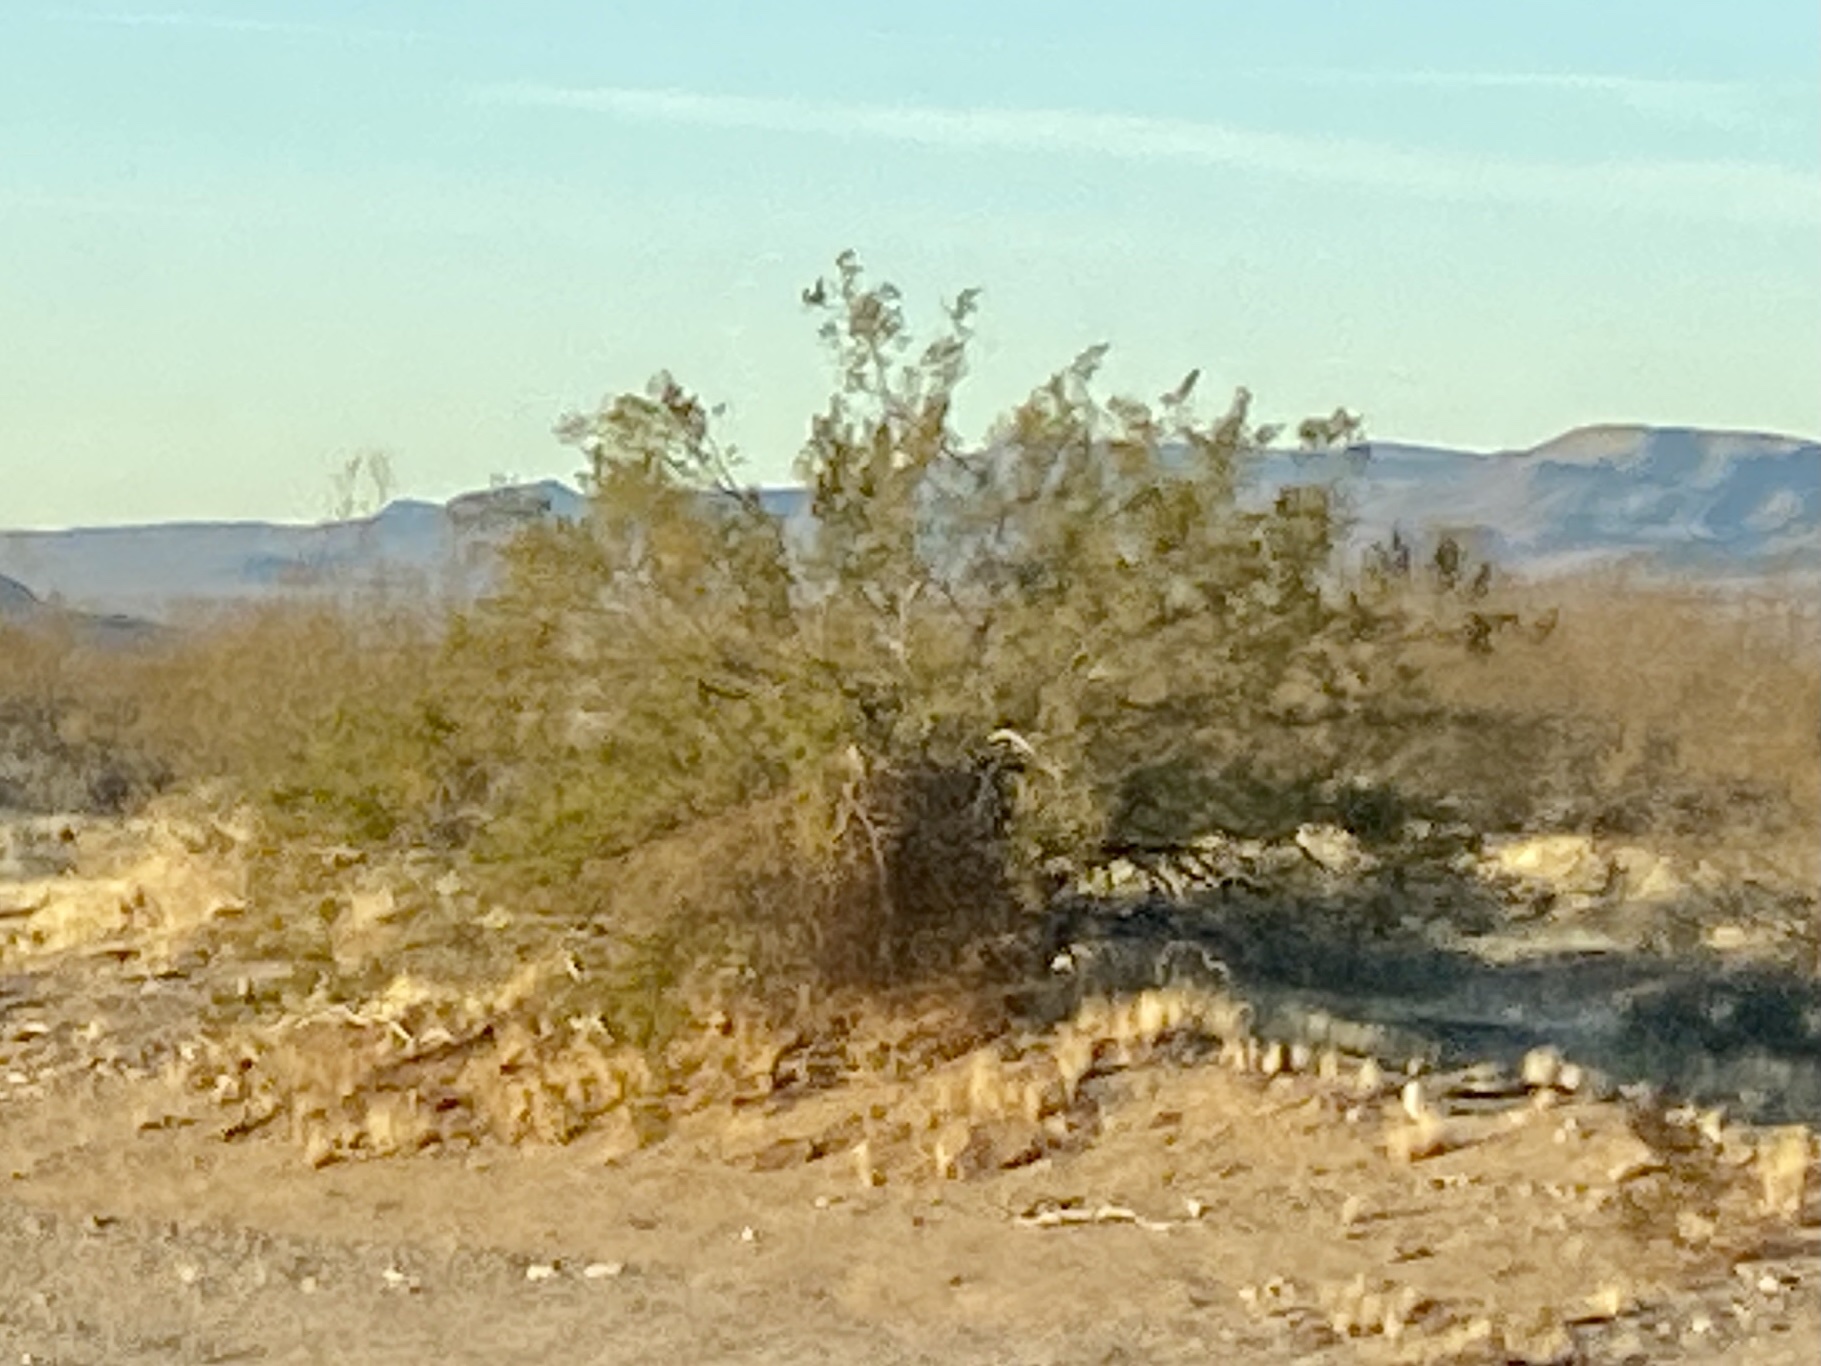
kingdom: Plantae
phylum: Tracheophyta
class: Magnoliopsida
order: Zygophyllales
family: Zygophyllaceae
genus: Larrea
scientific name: Larrea tridentata
